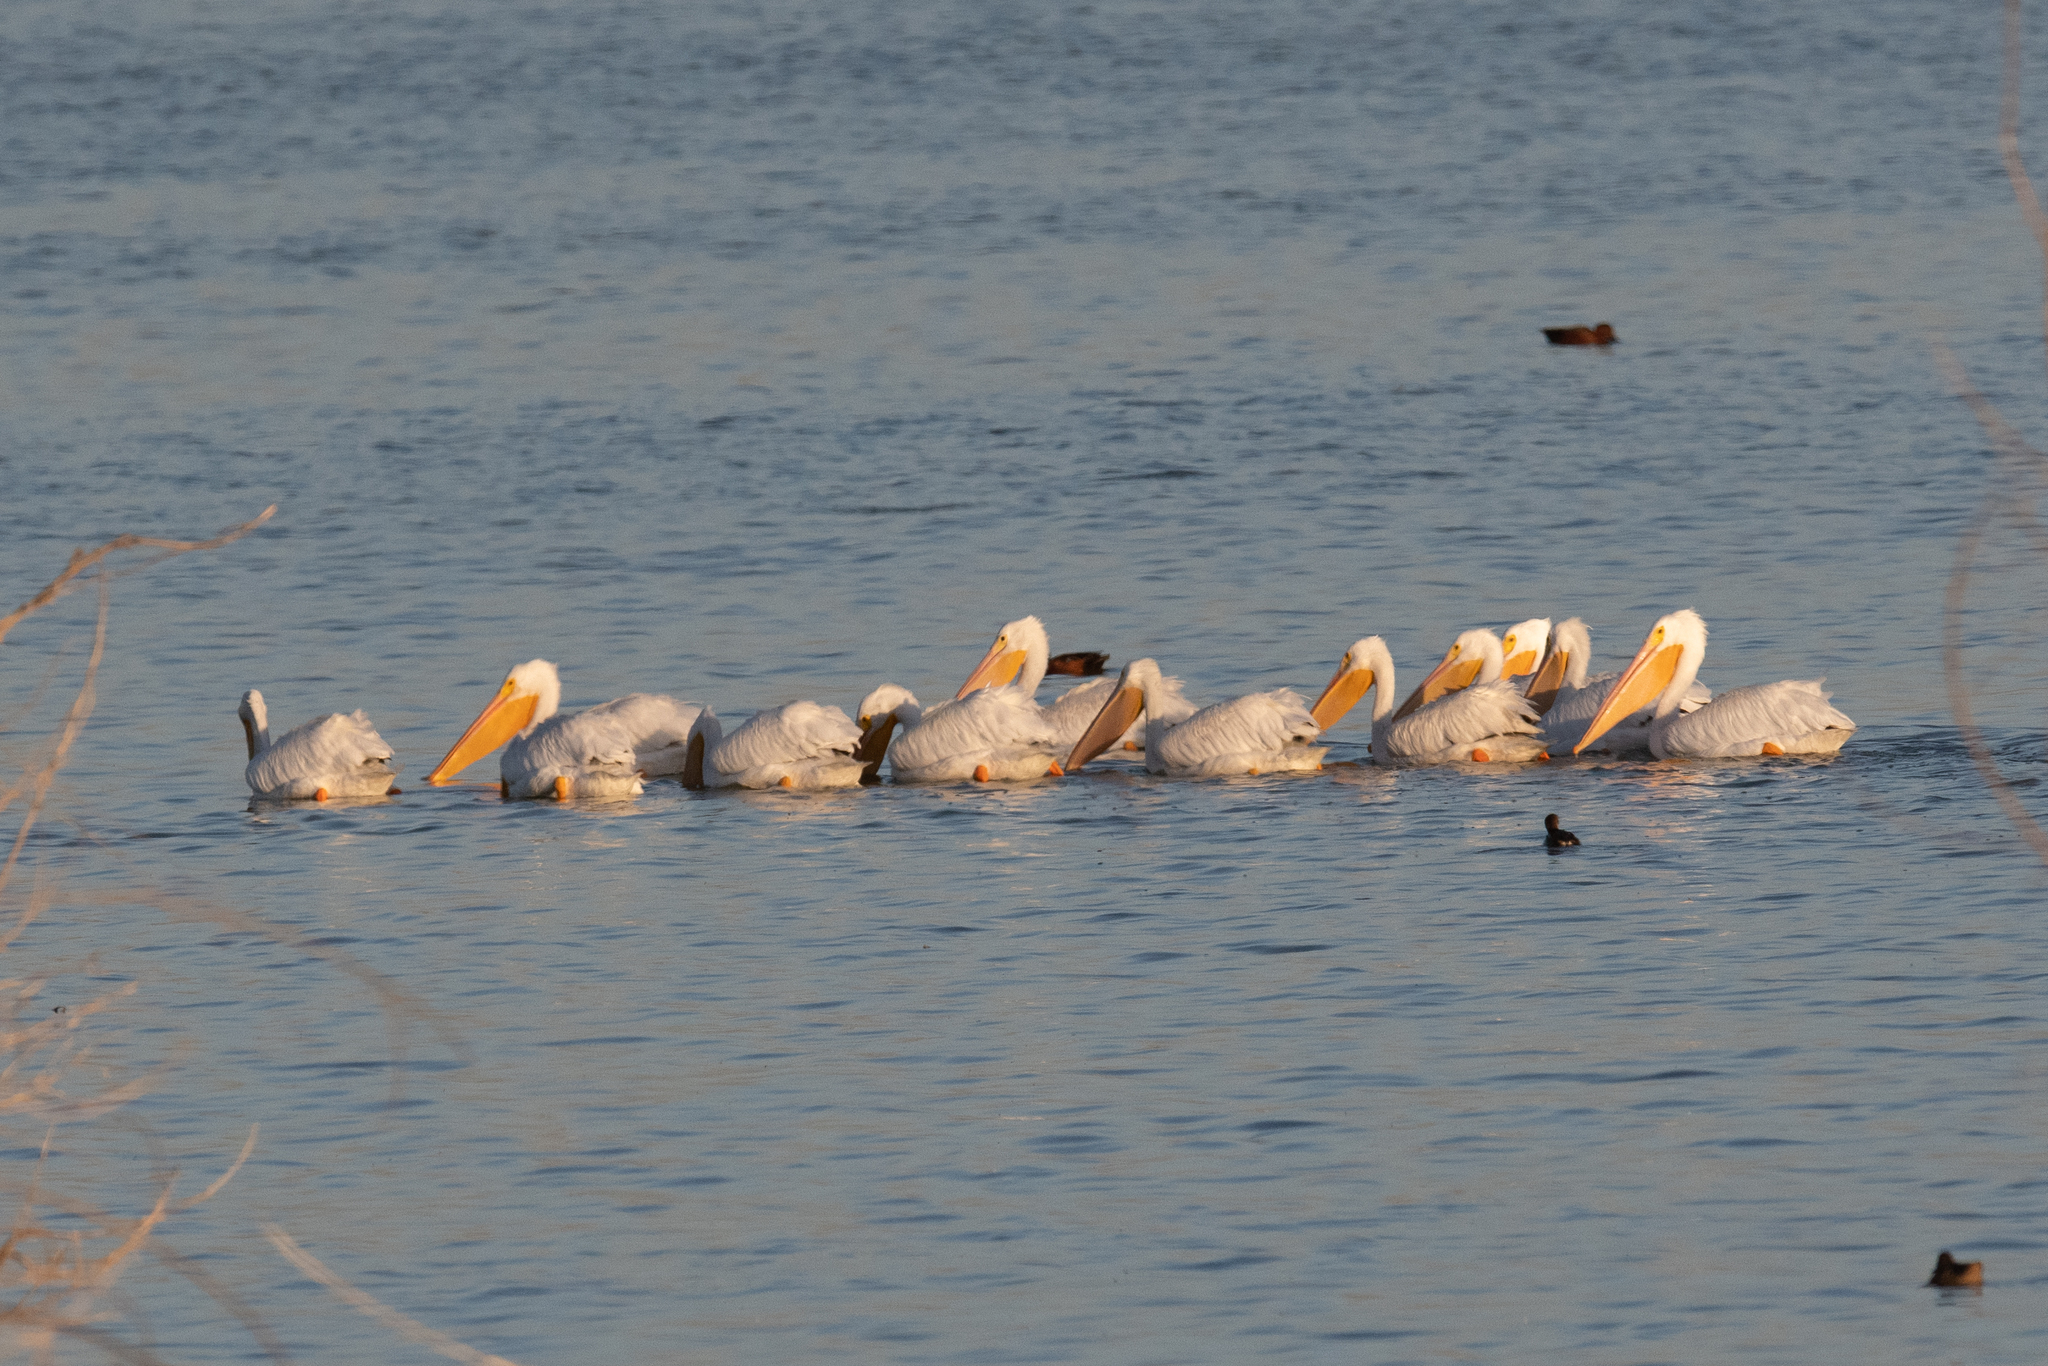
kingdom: Animalia
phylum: Chordata
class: Aves
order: Pelecaniformes
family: Pelecanidae
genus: Pelecanus
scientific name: Pelecanus erythrorhynchos
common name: American white pelican
